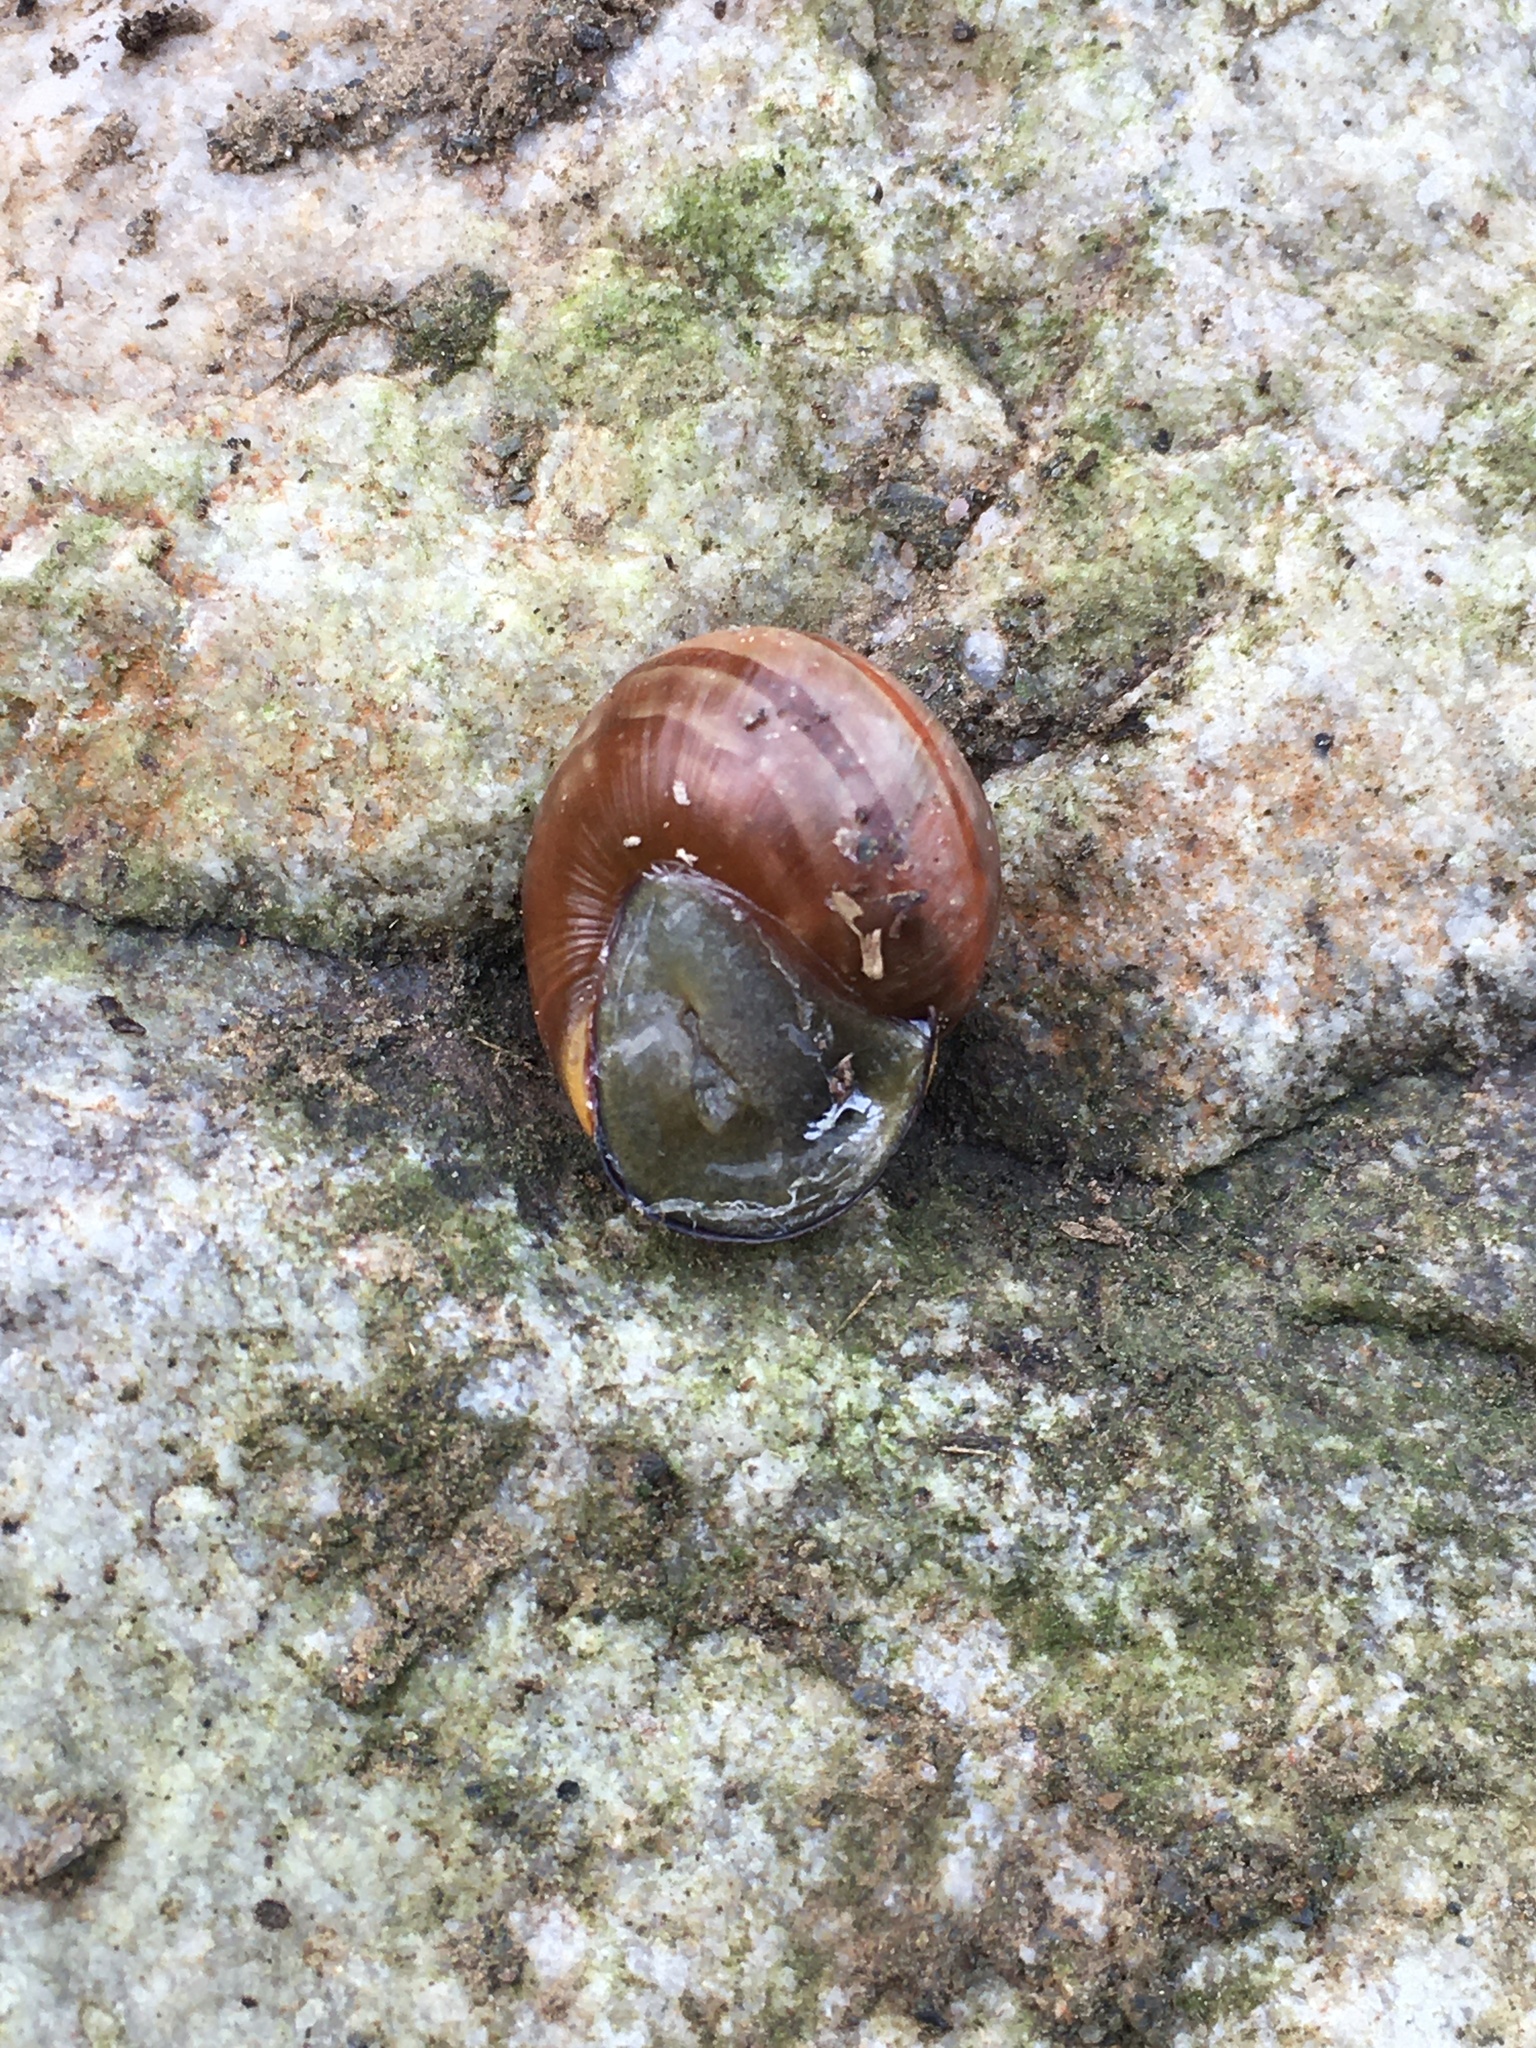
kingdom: Animalia
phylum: Mollusca
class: Gastropoda
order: Stylommatophora
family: Helicidae
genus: Cepaea
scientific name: Cepaea nemoralis
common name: Grovesnail
